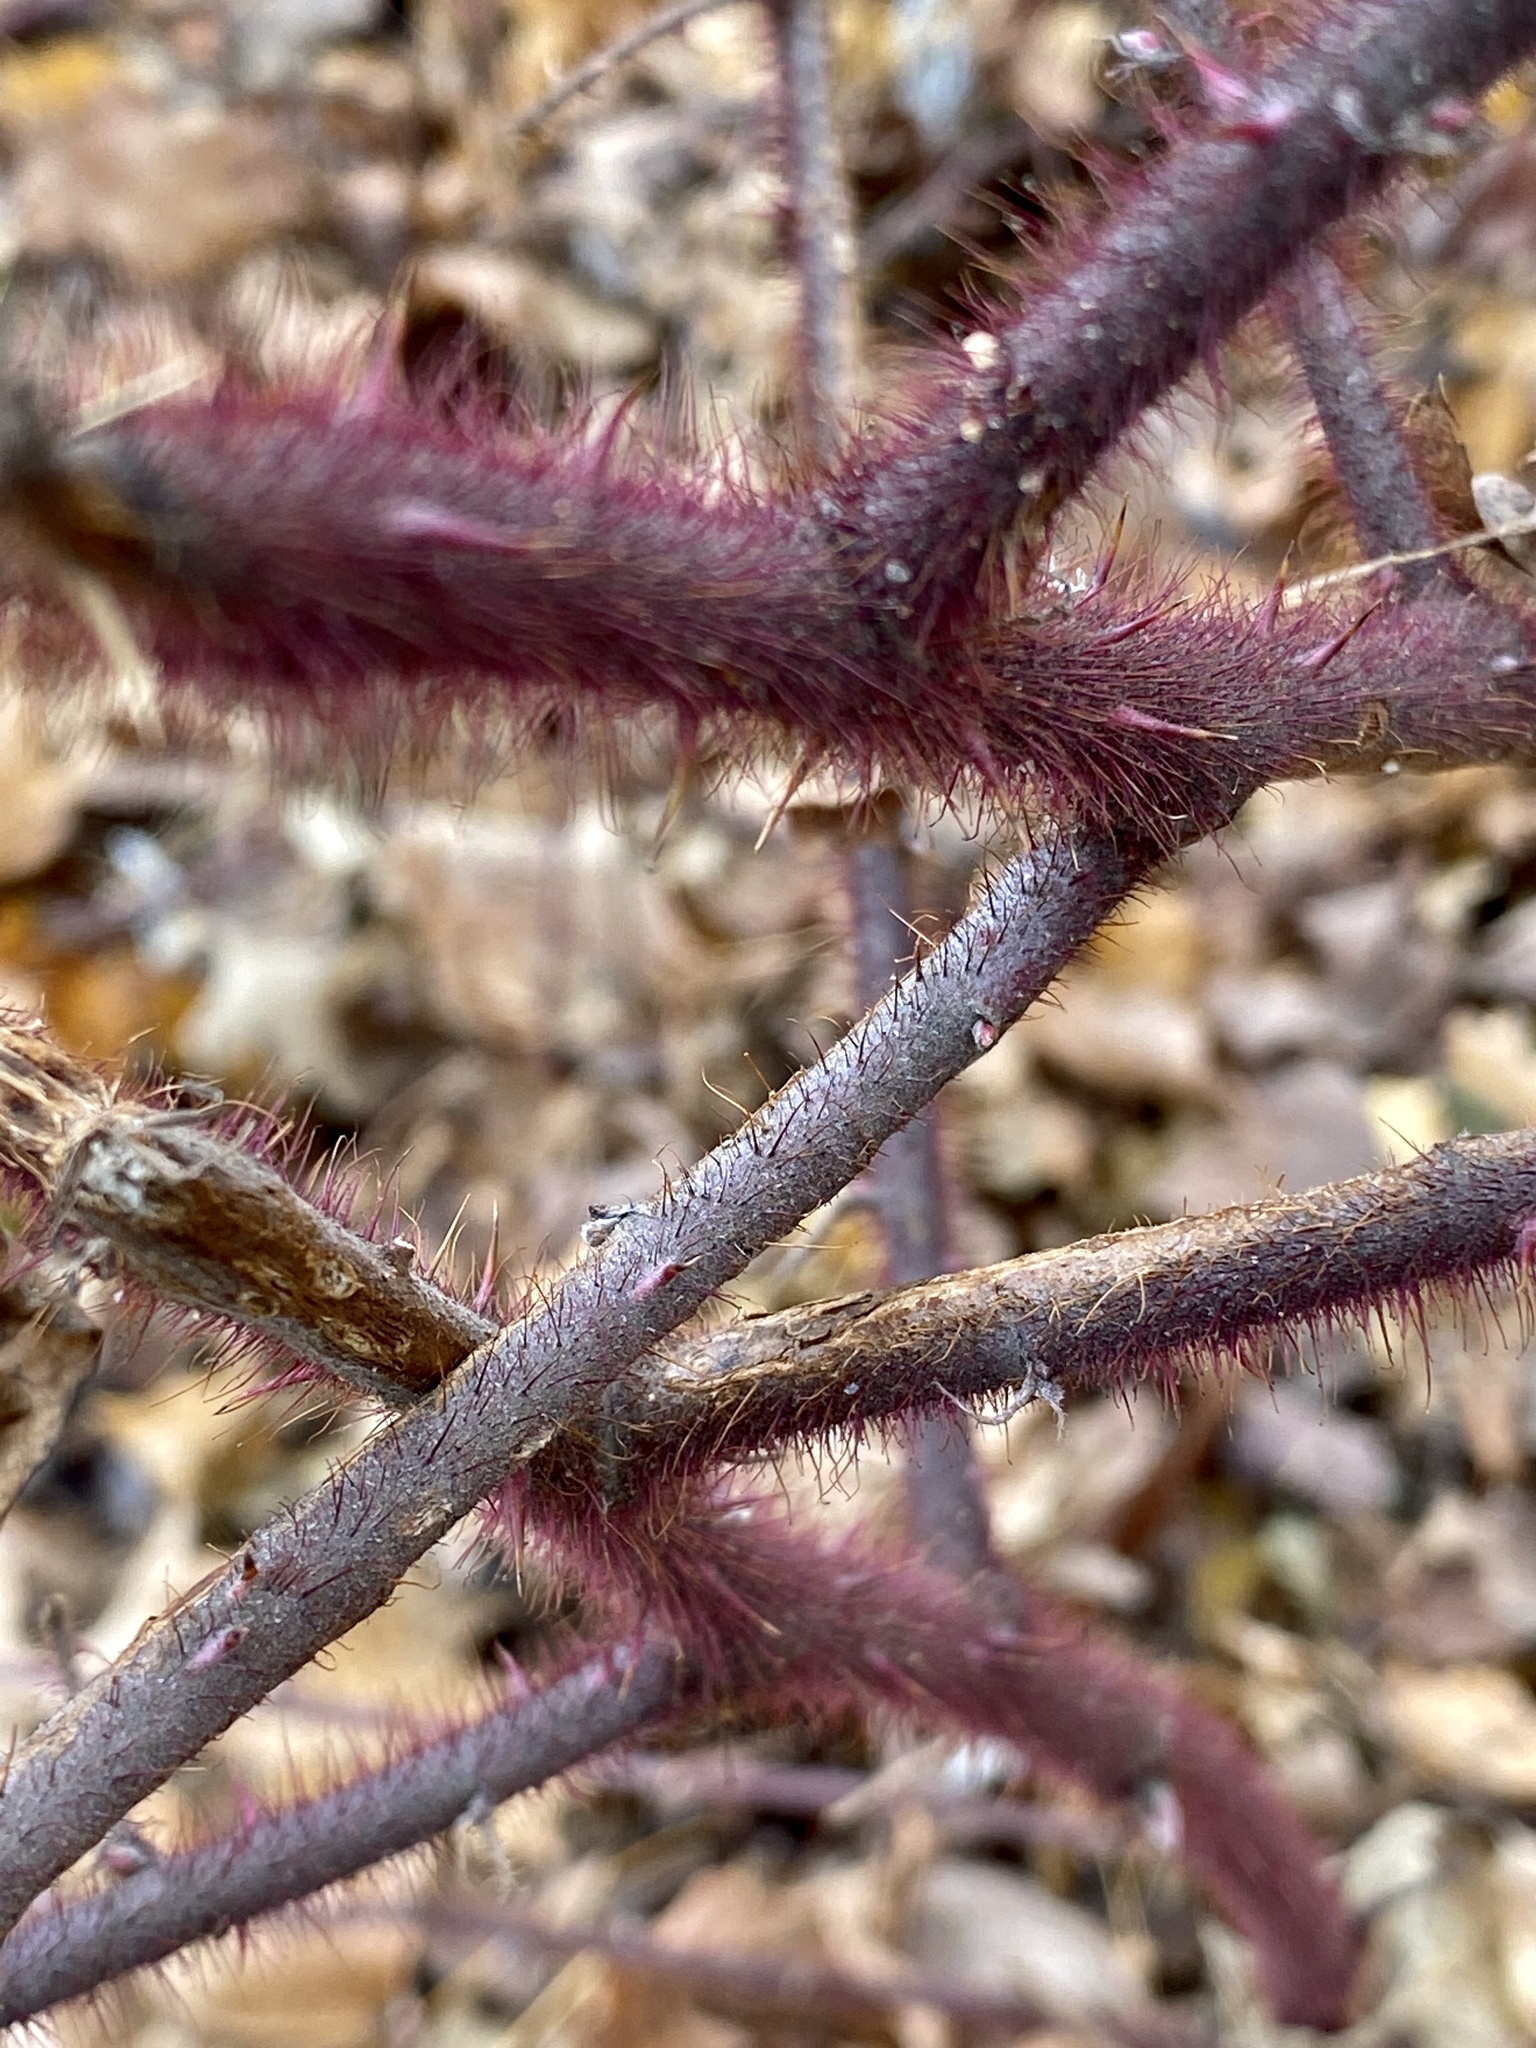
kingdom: Plantae
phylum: Tracheophyta
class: Magnoliopsida
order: Rosales
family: Rosaceae
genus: Rubus
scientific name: Rubus phoenicolasius
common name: Japanese wineberry
